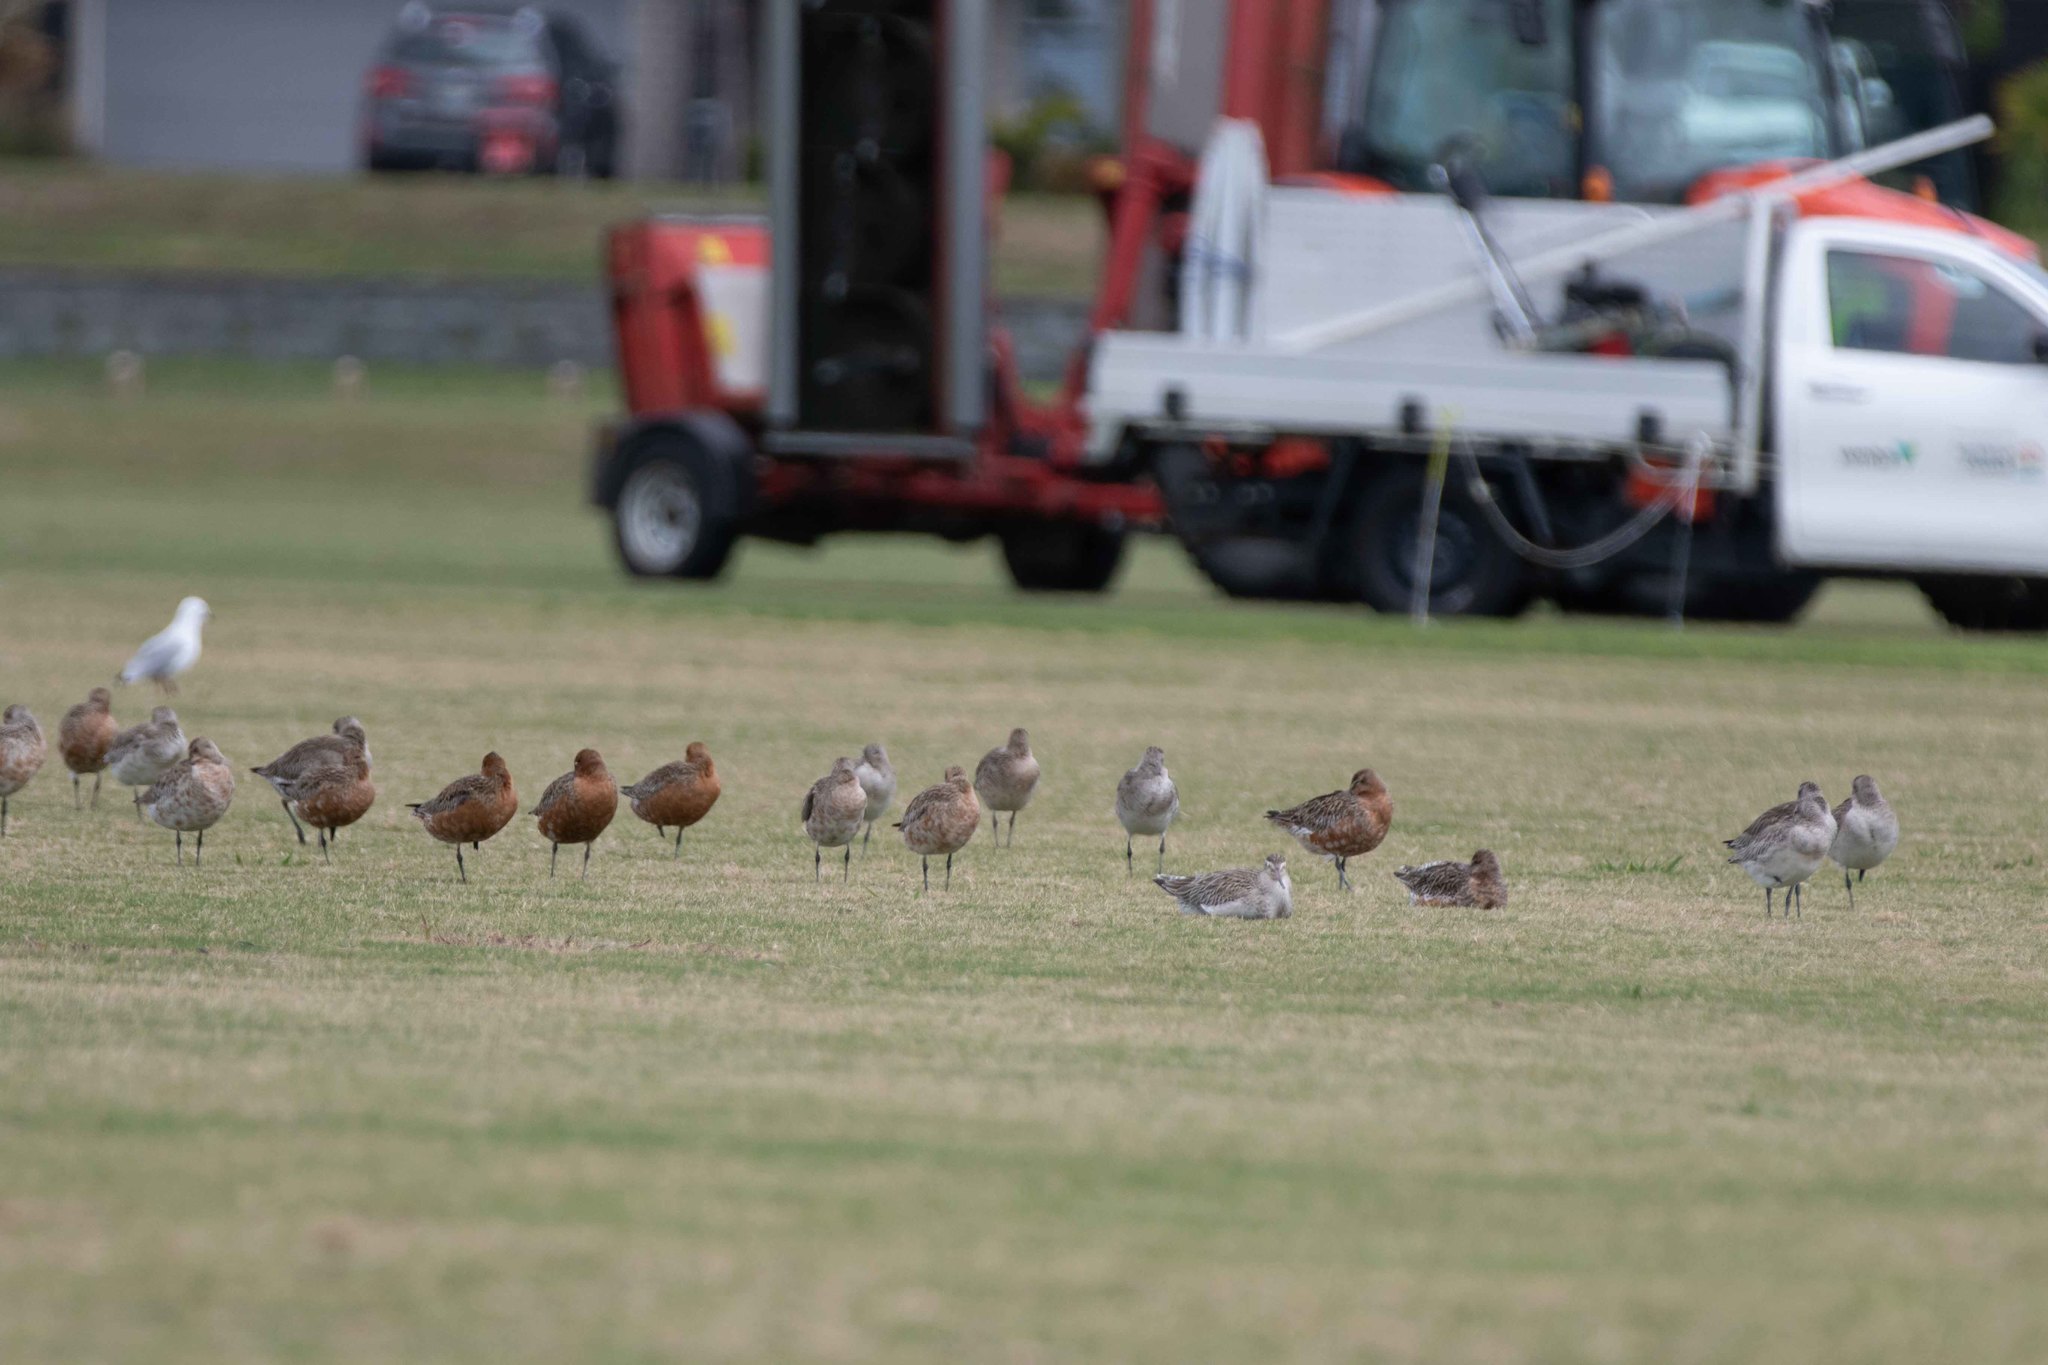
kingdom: Animalia
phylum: Chordata
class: Aves
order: Charadriiformes
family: Scolopacidae
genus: Limosa
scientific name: Limosa lapponica
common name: Bar-tailed godwit
